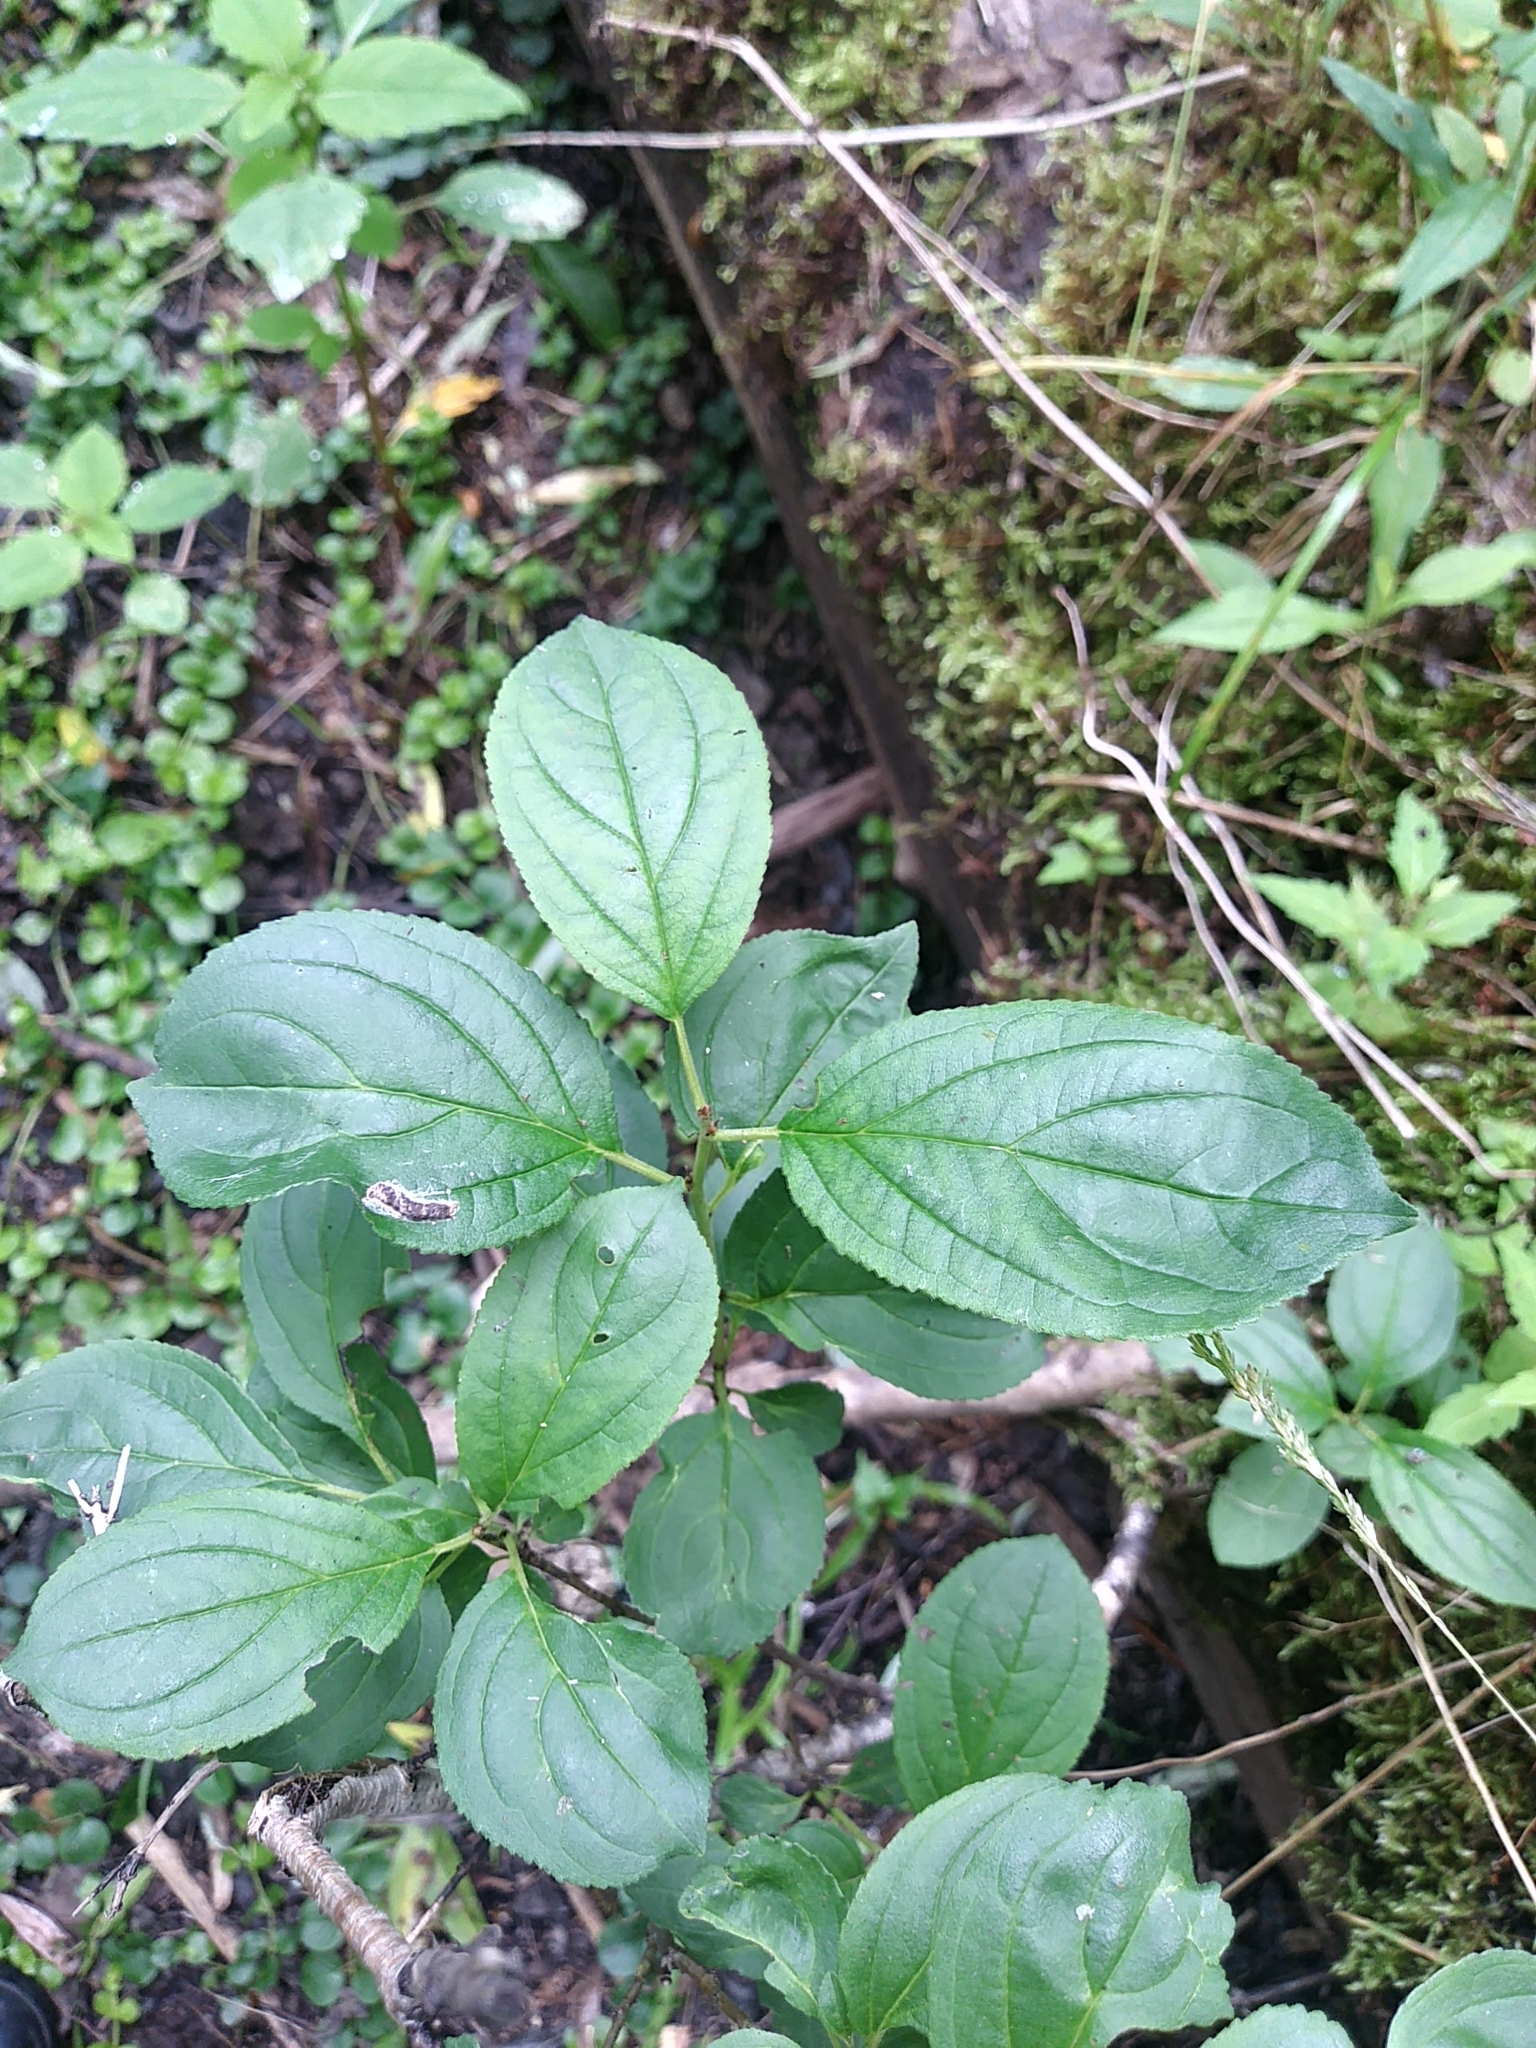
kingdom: Plantae
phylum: Tracheophyta
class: Magnoliopsida
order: Rosales
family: Rhamnaceae
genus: Rhamnus
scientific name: Rhamnus cathartica
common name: Common buckthorn
